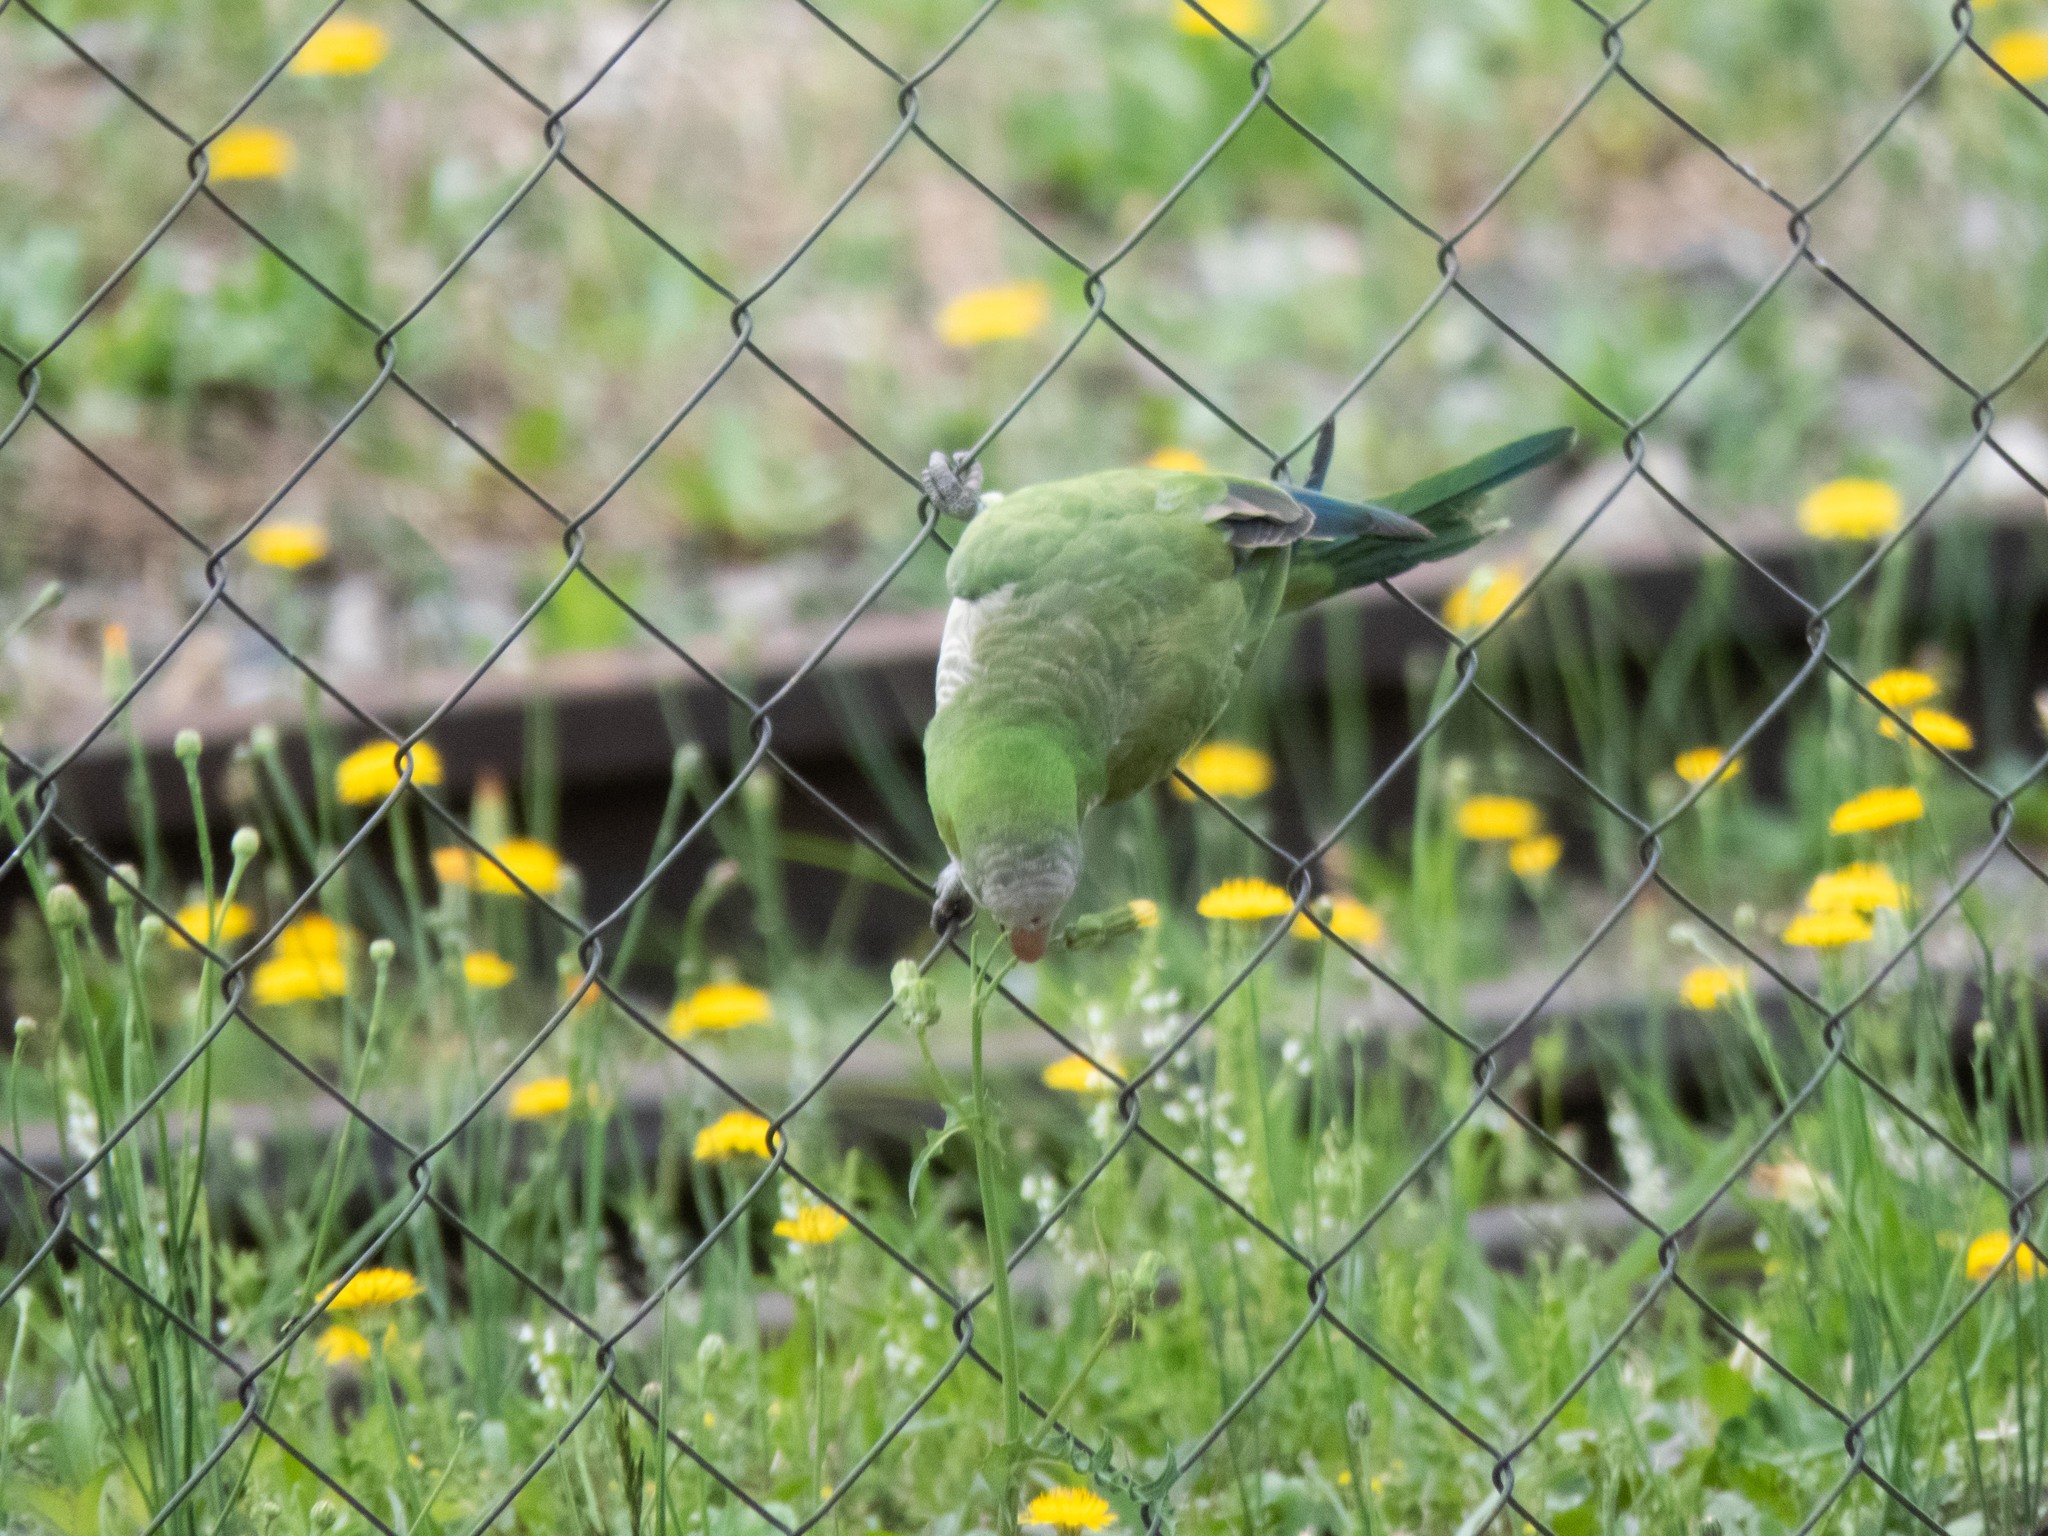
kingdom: Animalia
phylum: Chordata
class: Aves
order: Psittaciformes
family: Psittacidae
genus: Myiopsitta
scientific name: Myiopsitta monachus
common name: Monk parakeet
